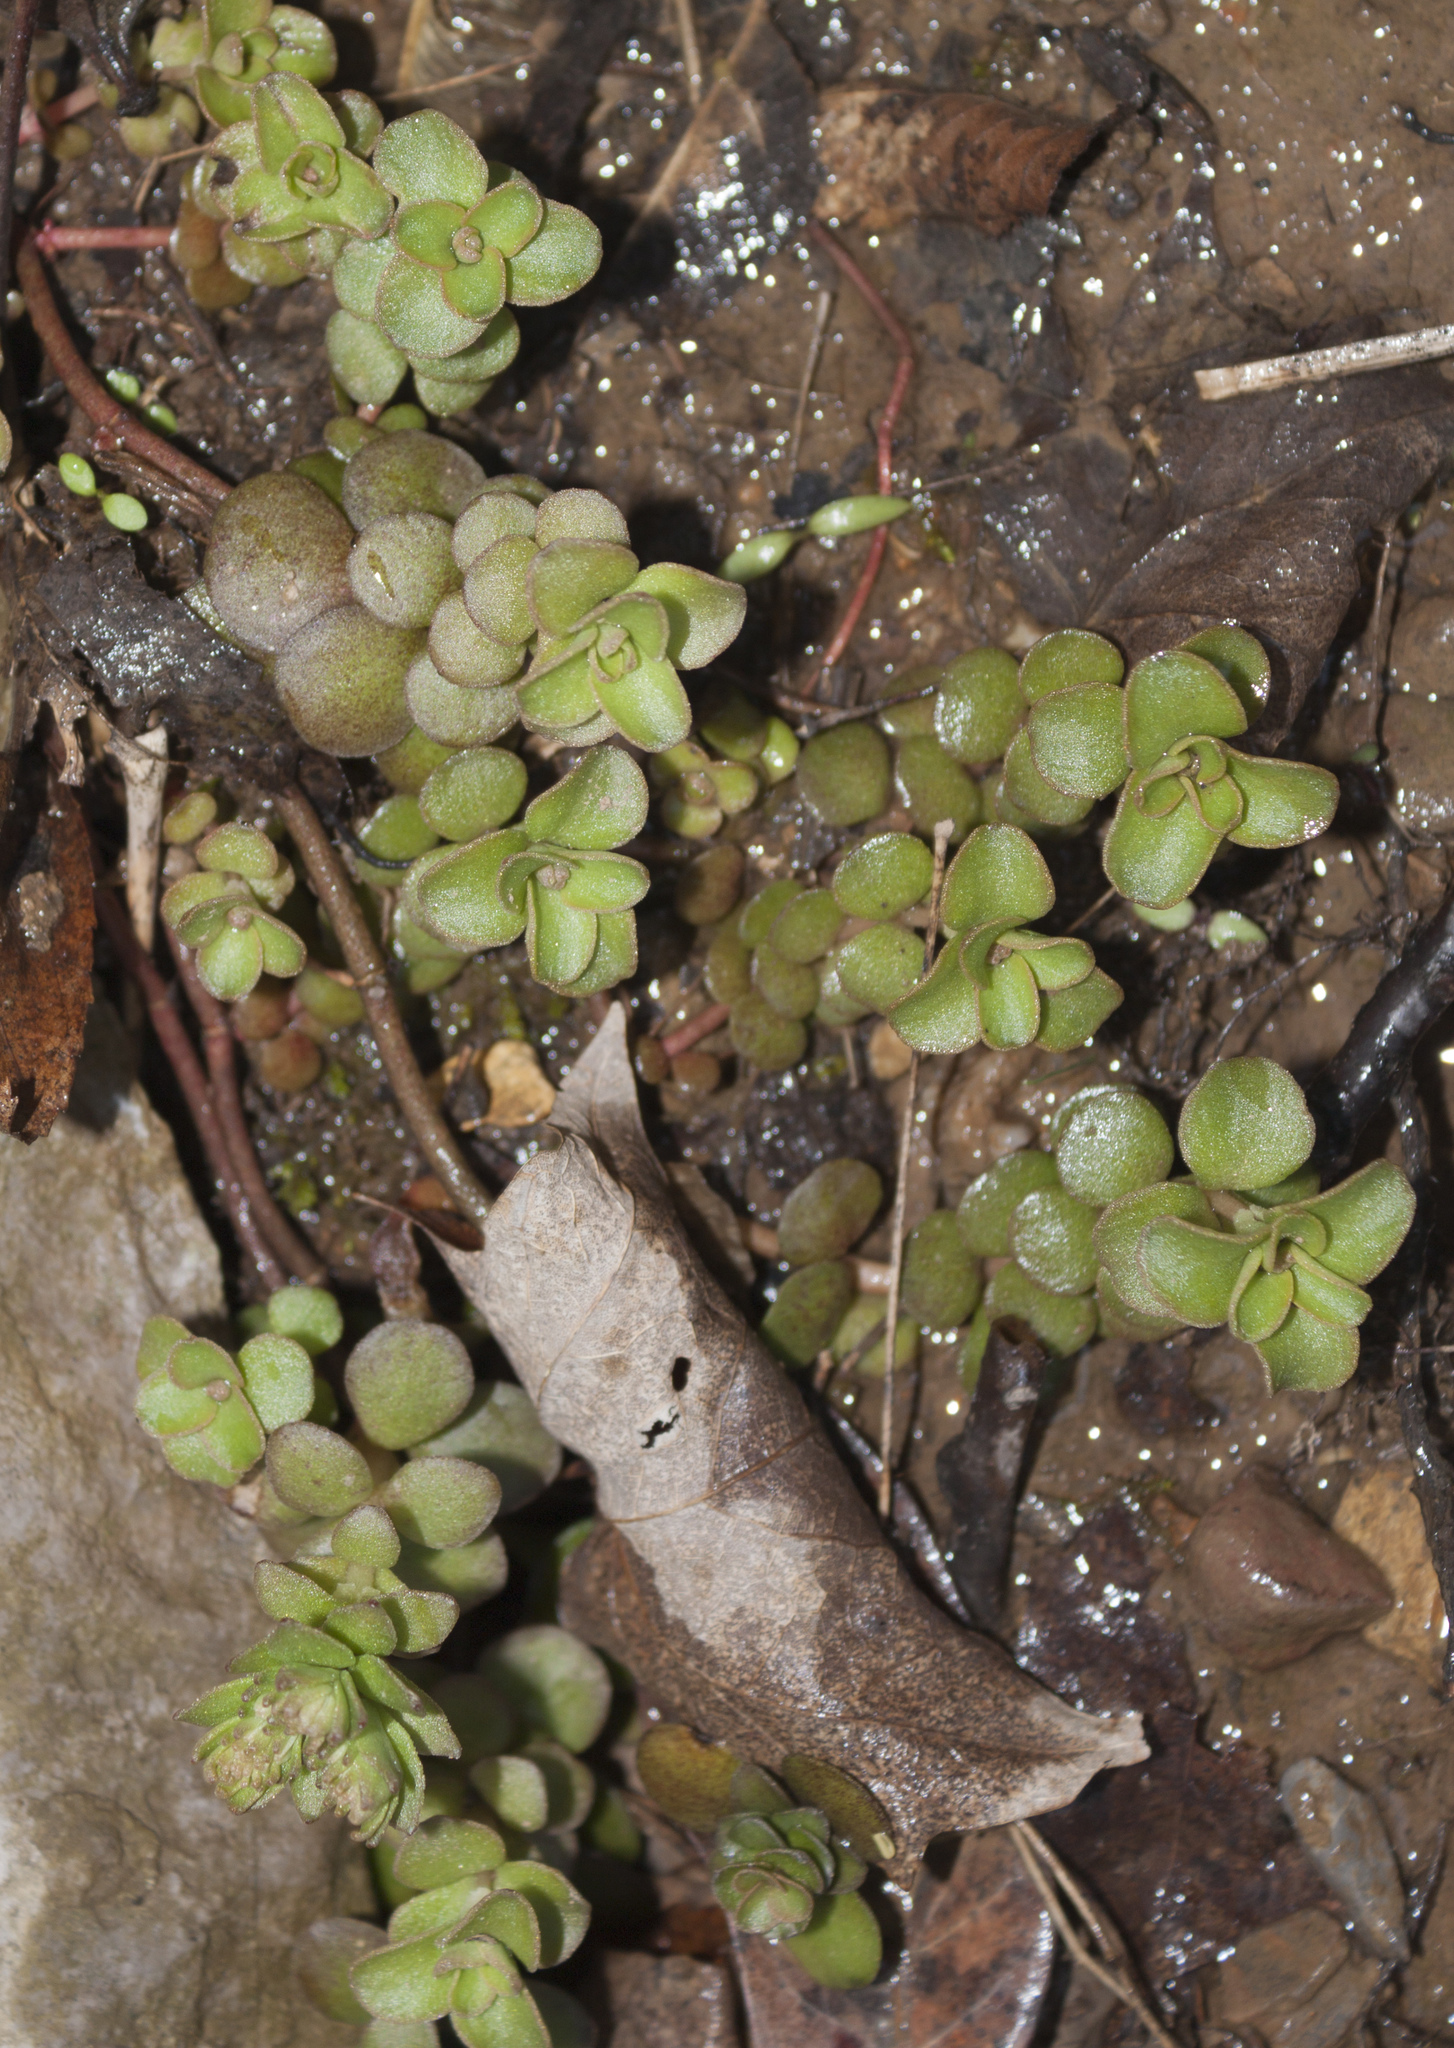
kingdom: Plantae
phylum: Tracheophyta
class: Magnoliopsida
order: Saxifragales
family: Crassulaceae
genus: Sedum
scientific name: Sedum ternatum
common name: Wild stonecrop
